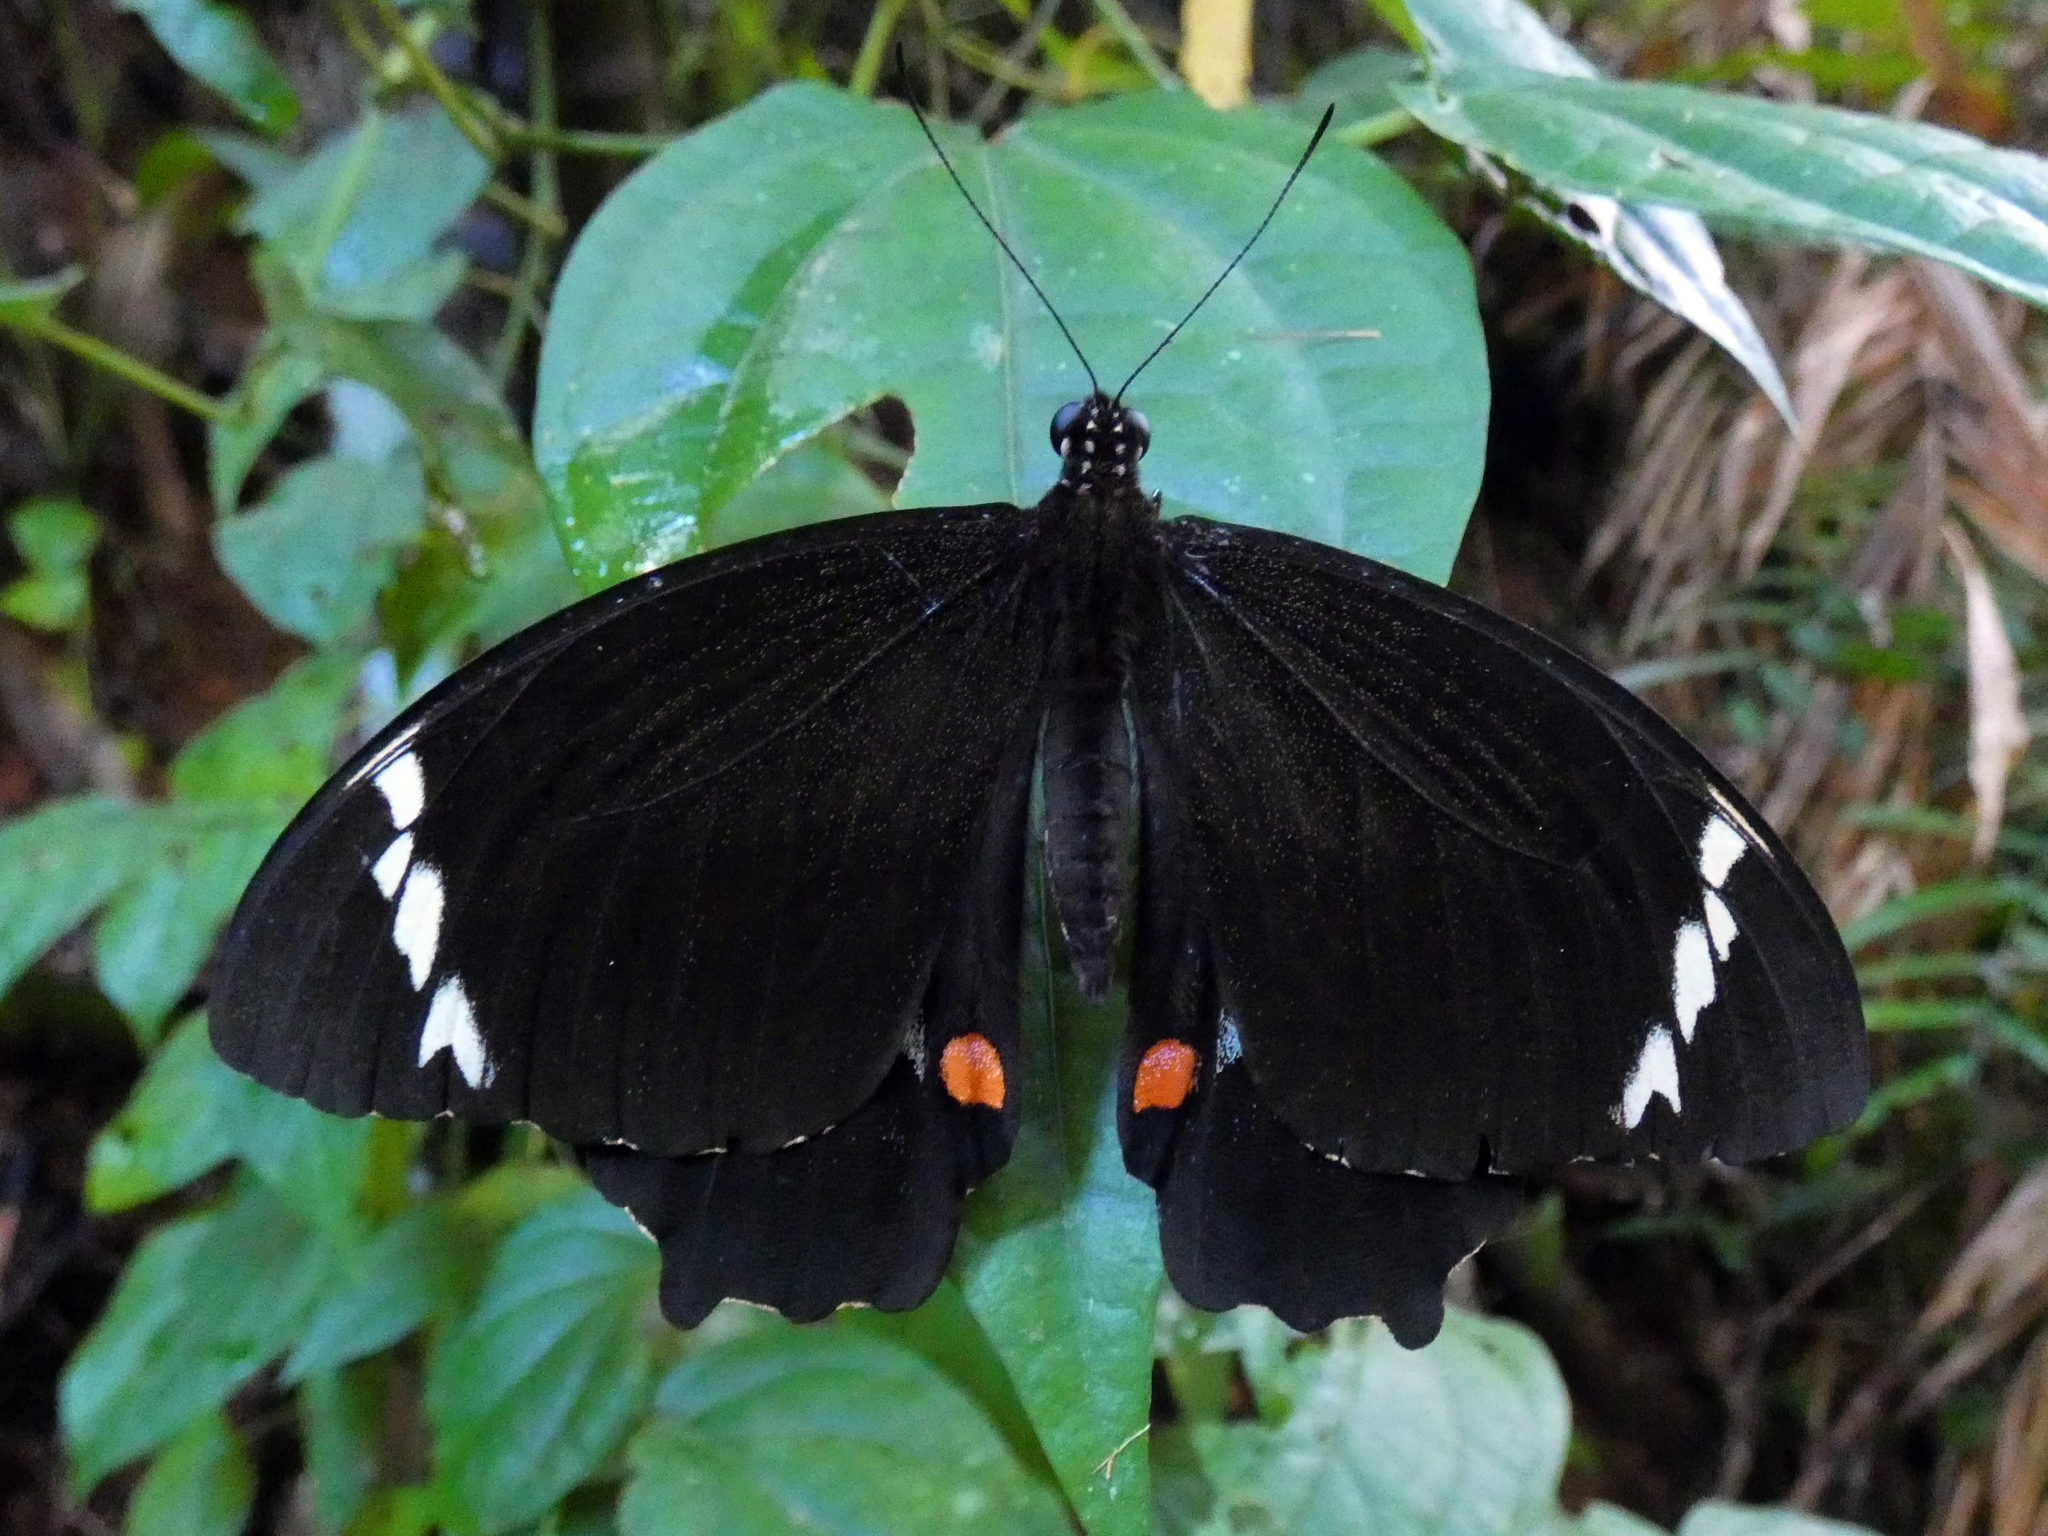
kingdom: Animalia
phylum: Arthropoda
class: Insecta
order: Lepidoptera
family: Papilionidae
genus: Papilio
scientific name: Papilio aegeus
